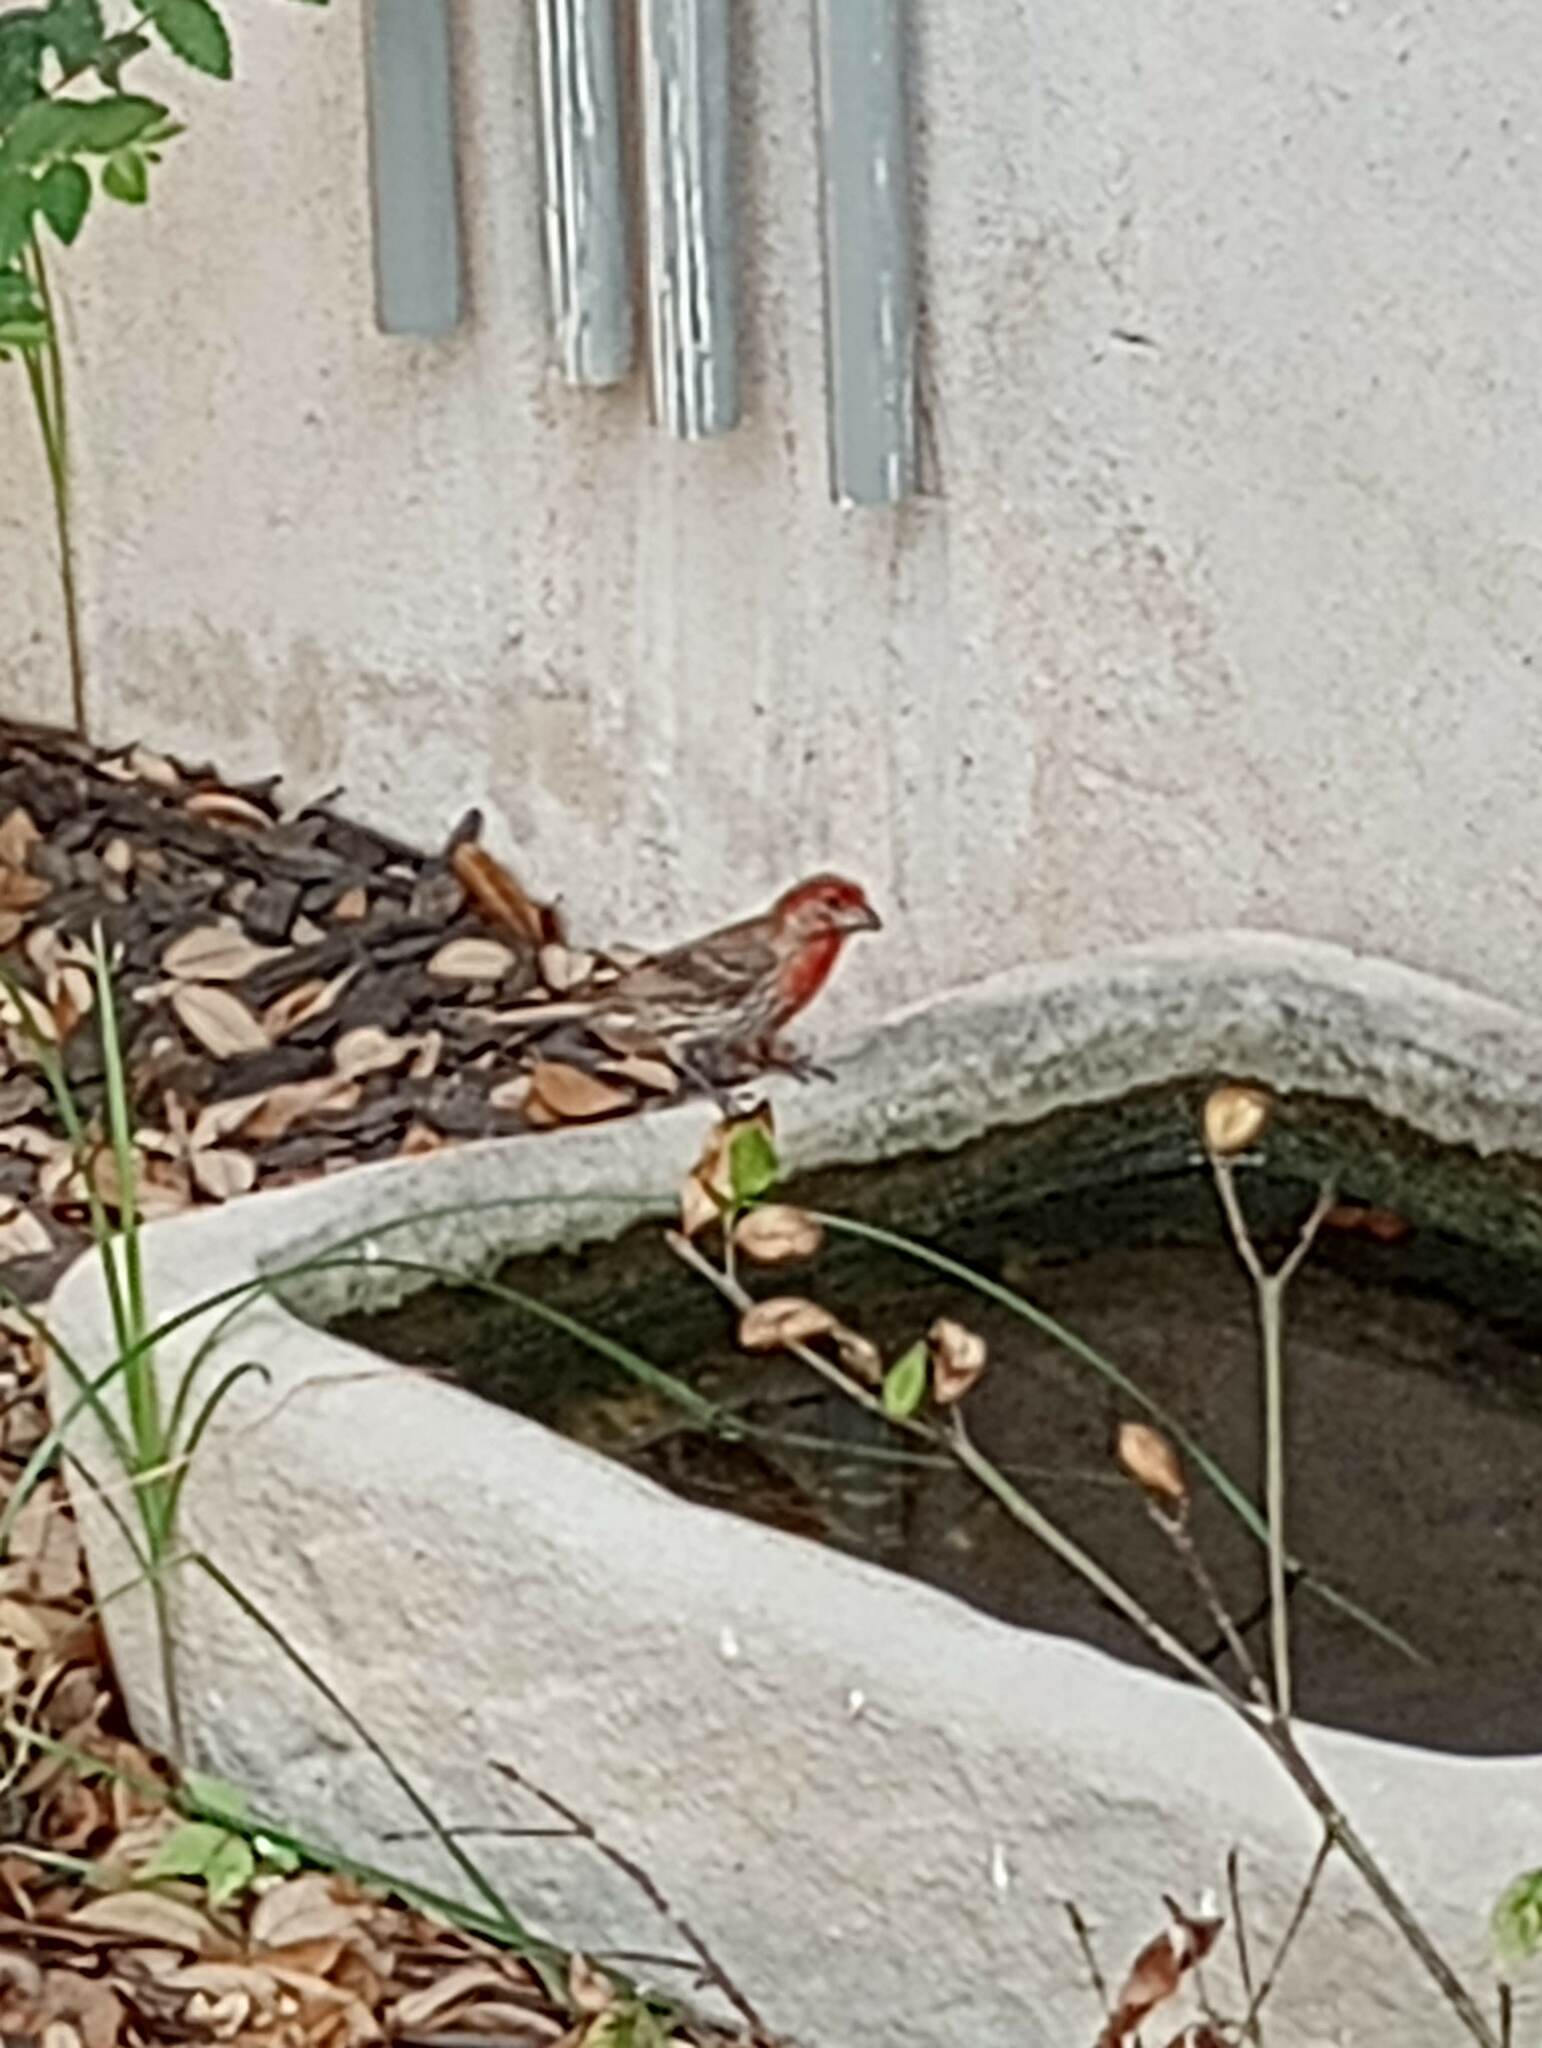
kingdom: Animalia
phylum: Chordata
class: Aves
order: Passeriformes
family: Fringillidae
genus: Haemorhous
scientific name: Haemorhous mexicanus
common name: House finch
